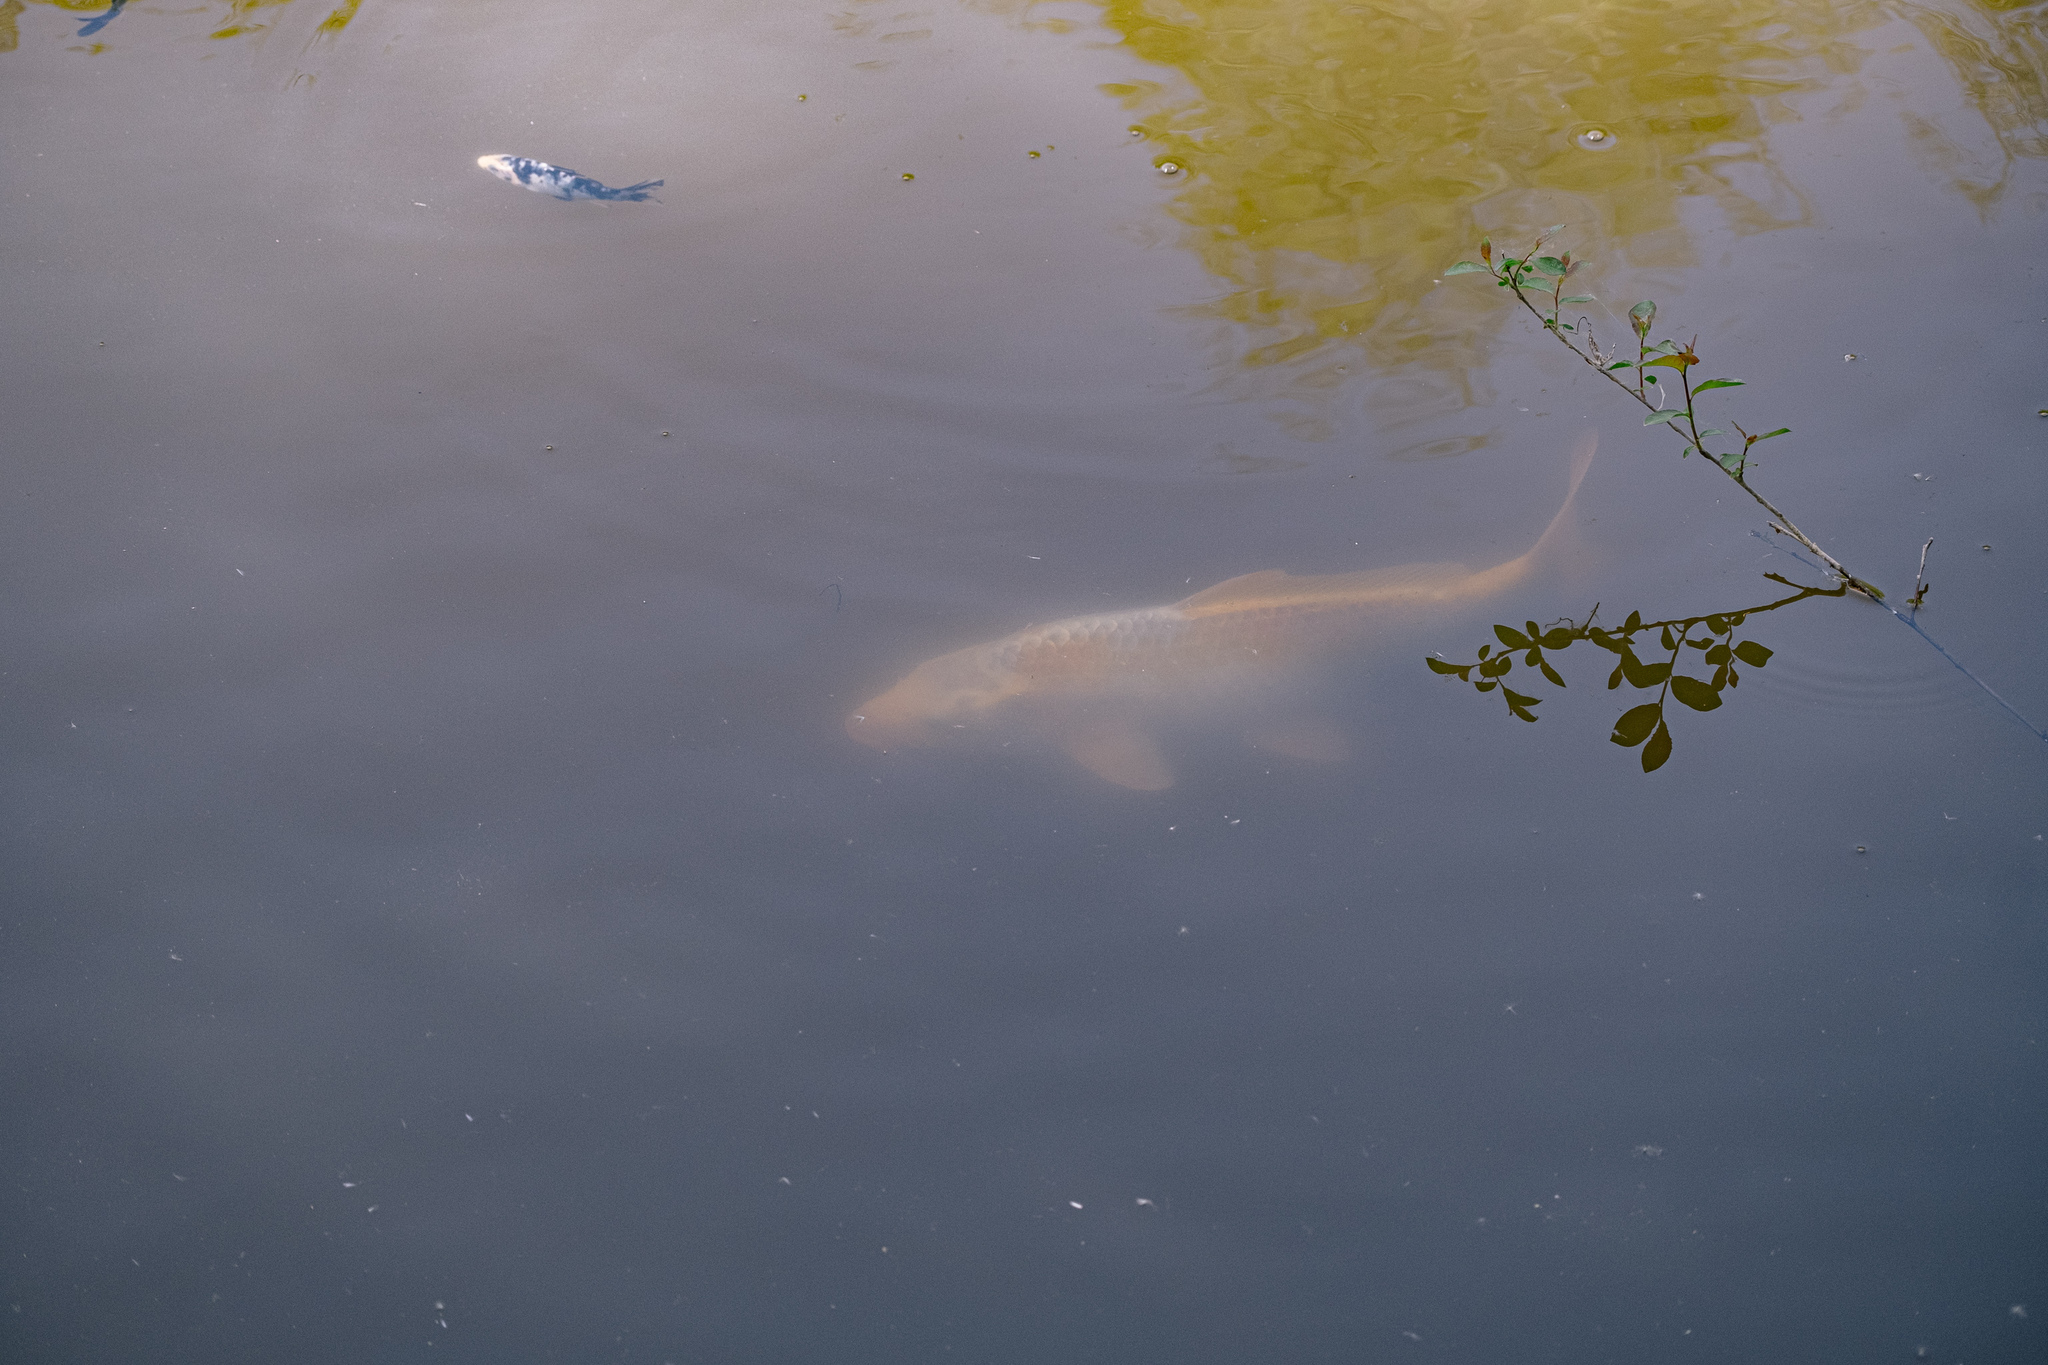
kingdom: Animalia
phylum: Chordata
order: Cypriniformes
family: Cyprinidae
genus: Cyprinus
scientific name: Cyprinus rubrofuscus
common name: Koi
